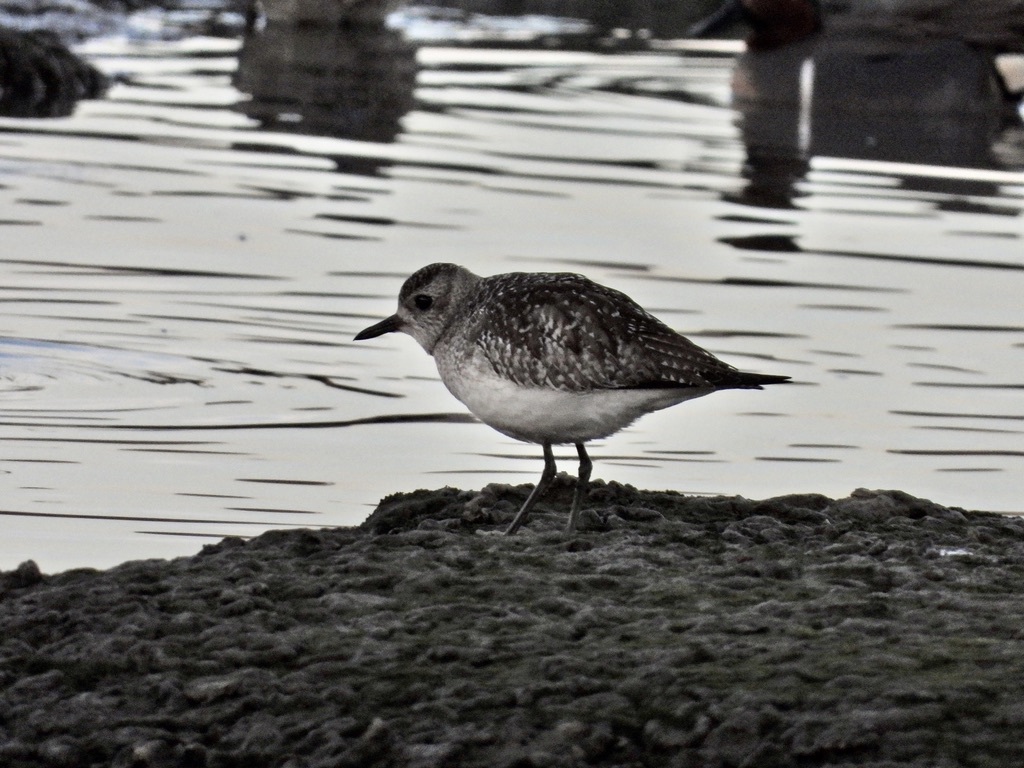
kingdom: Animalia
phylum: Chordata
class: Aves
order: Charadriiformes
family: Charadriidae
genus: Pluvialis
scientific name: Pluvialis squatarola
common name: Grey plover
